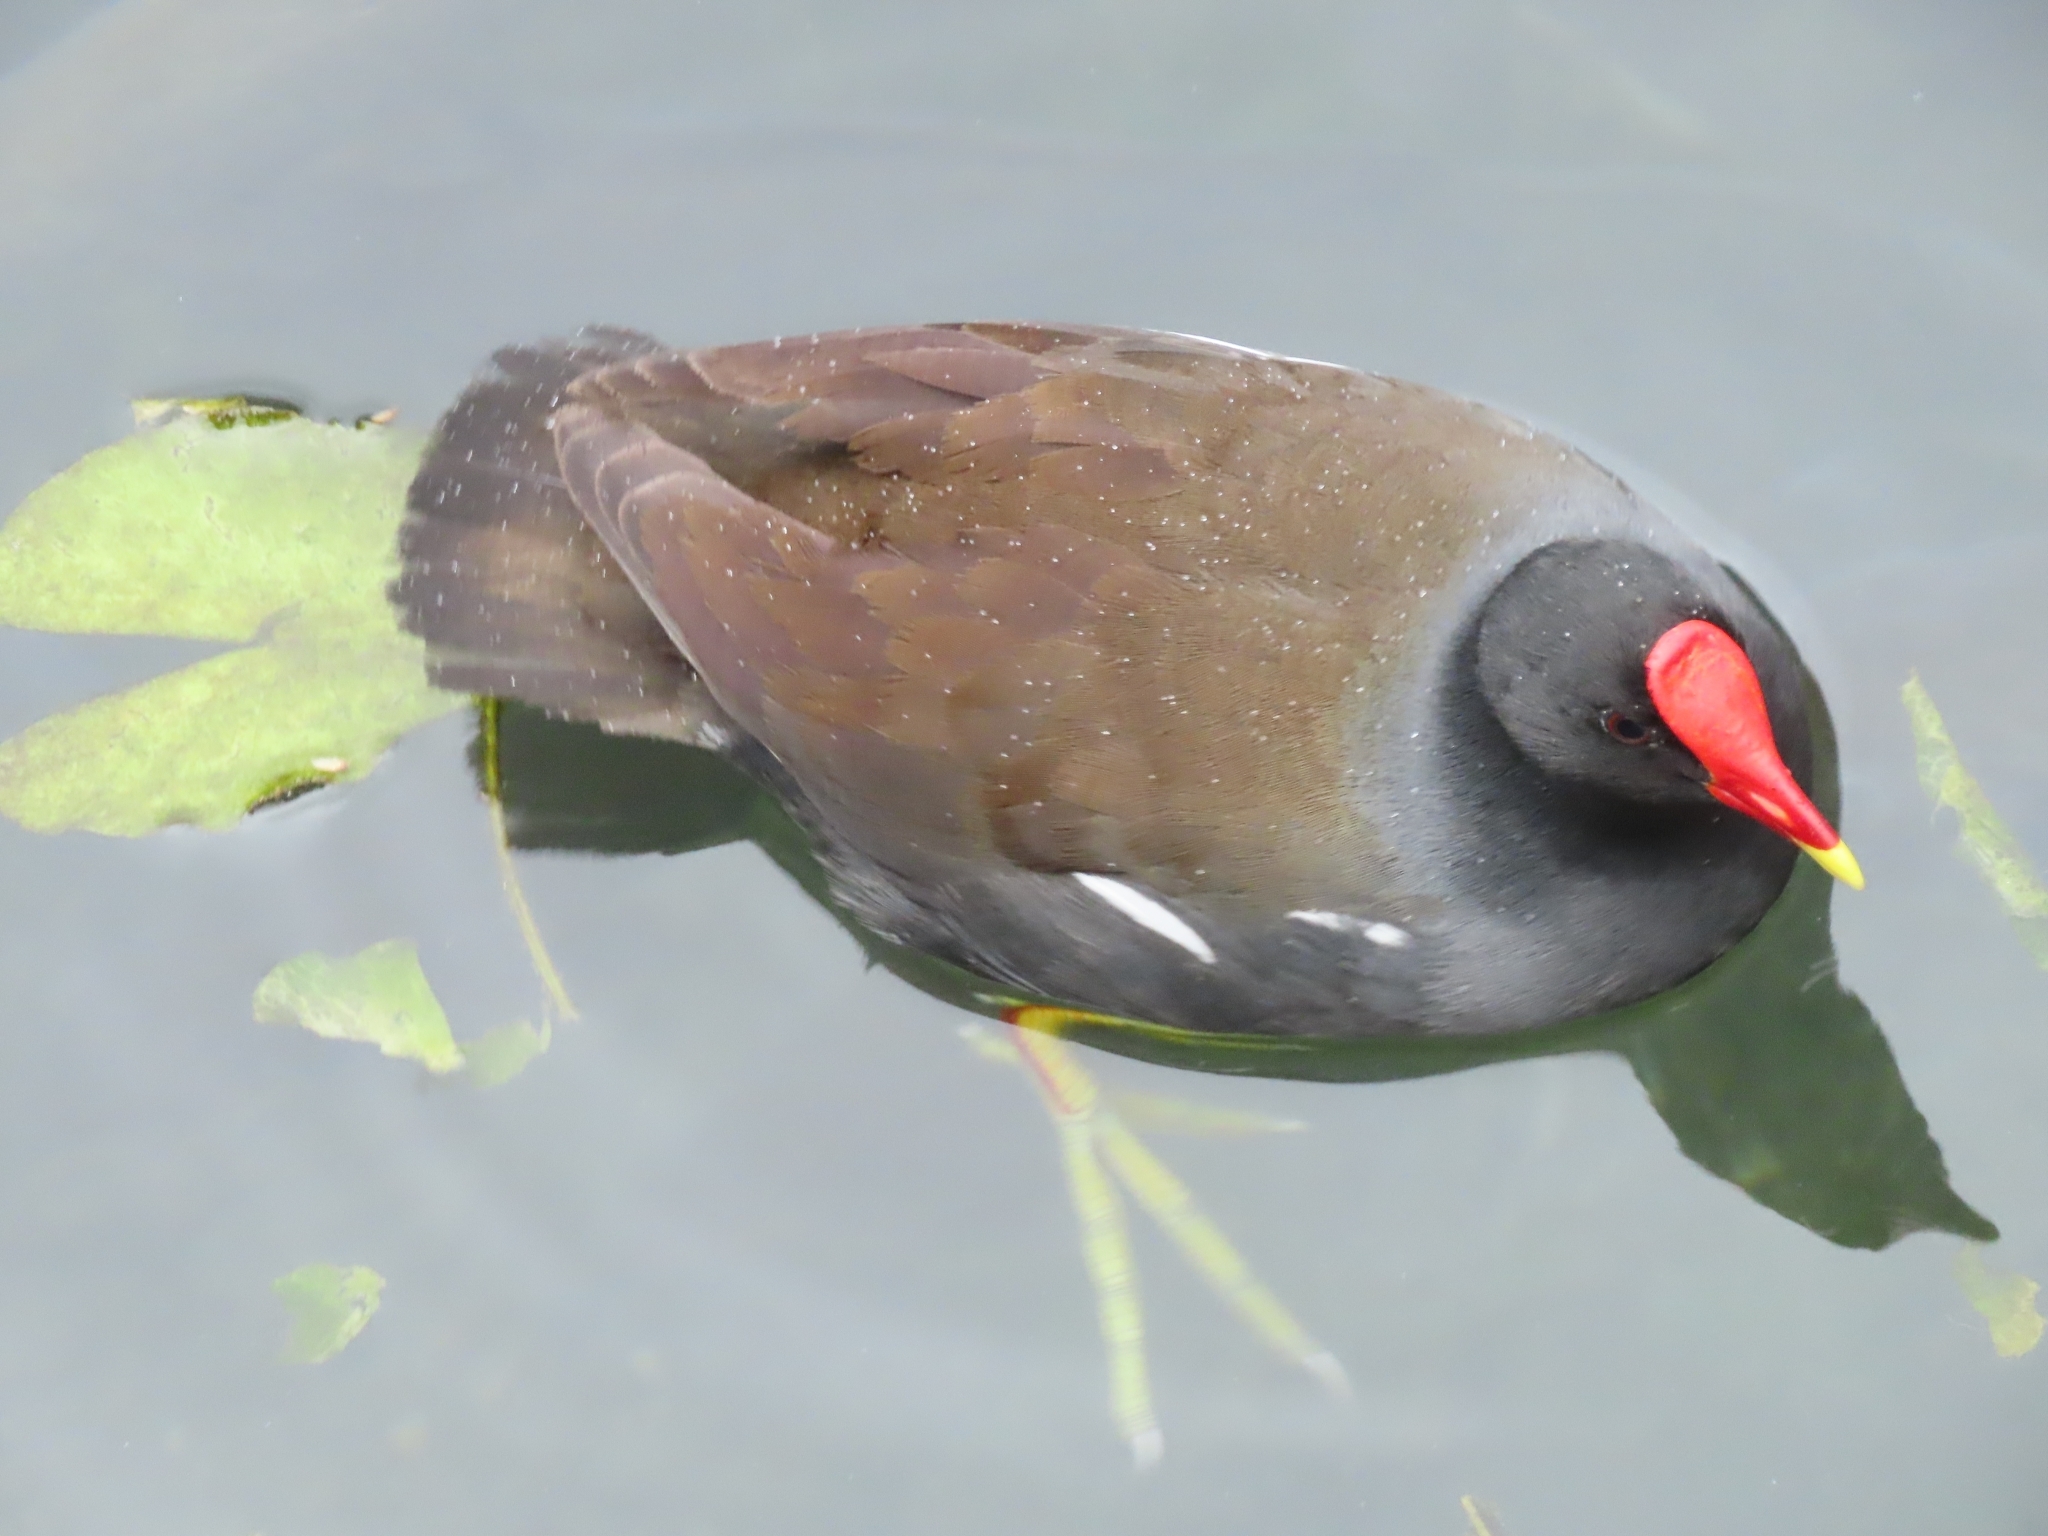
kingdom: Animalia
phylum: Chordata
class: Aves
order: Gruiformes
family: Rallidae
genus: Gallinula
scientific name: Gallinula chloropus
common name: Common moorhen
